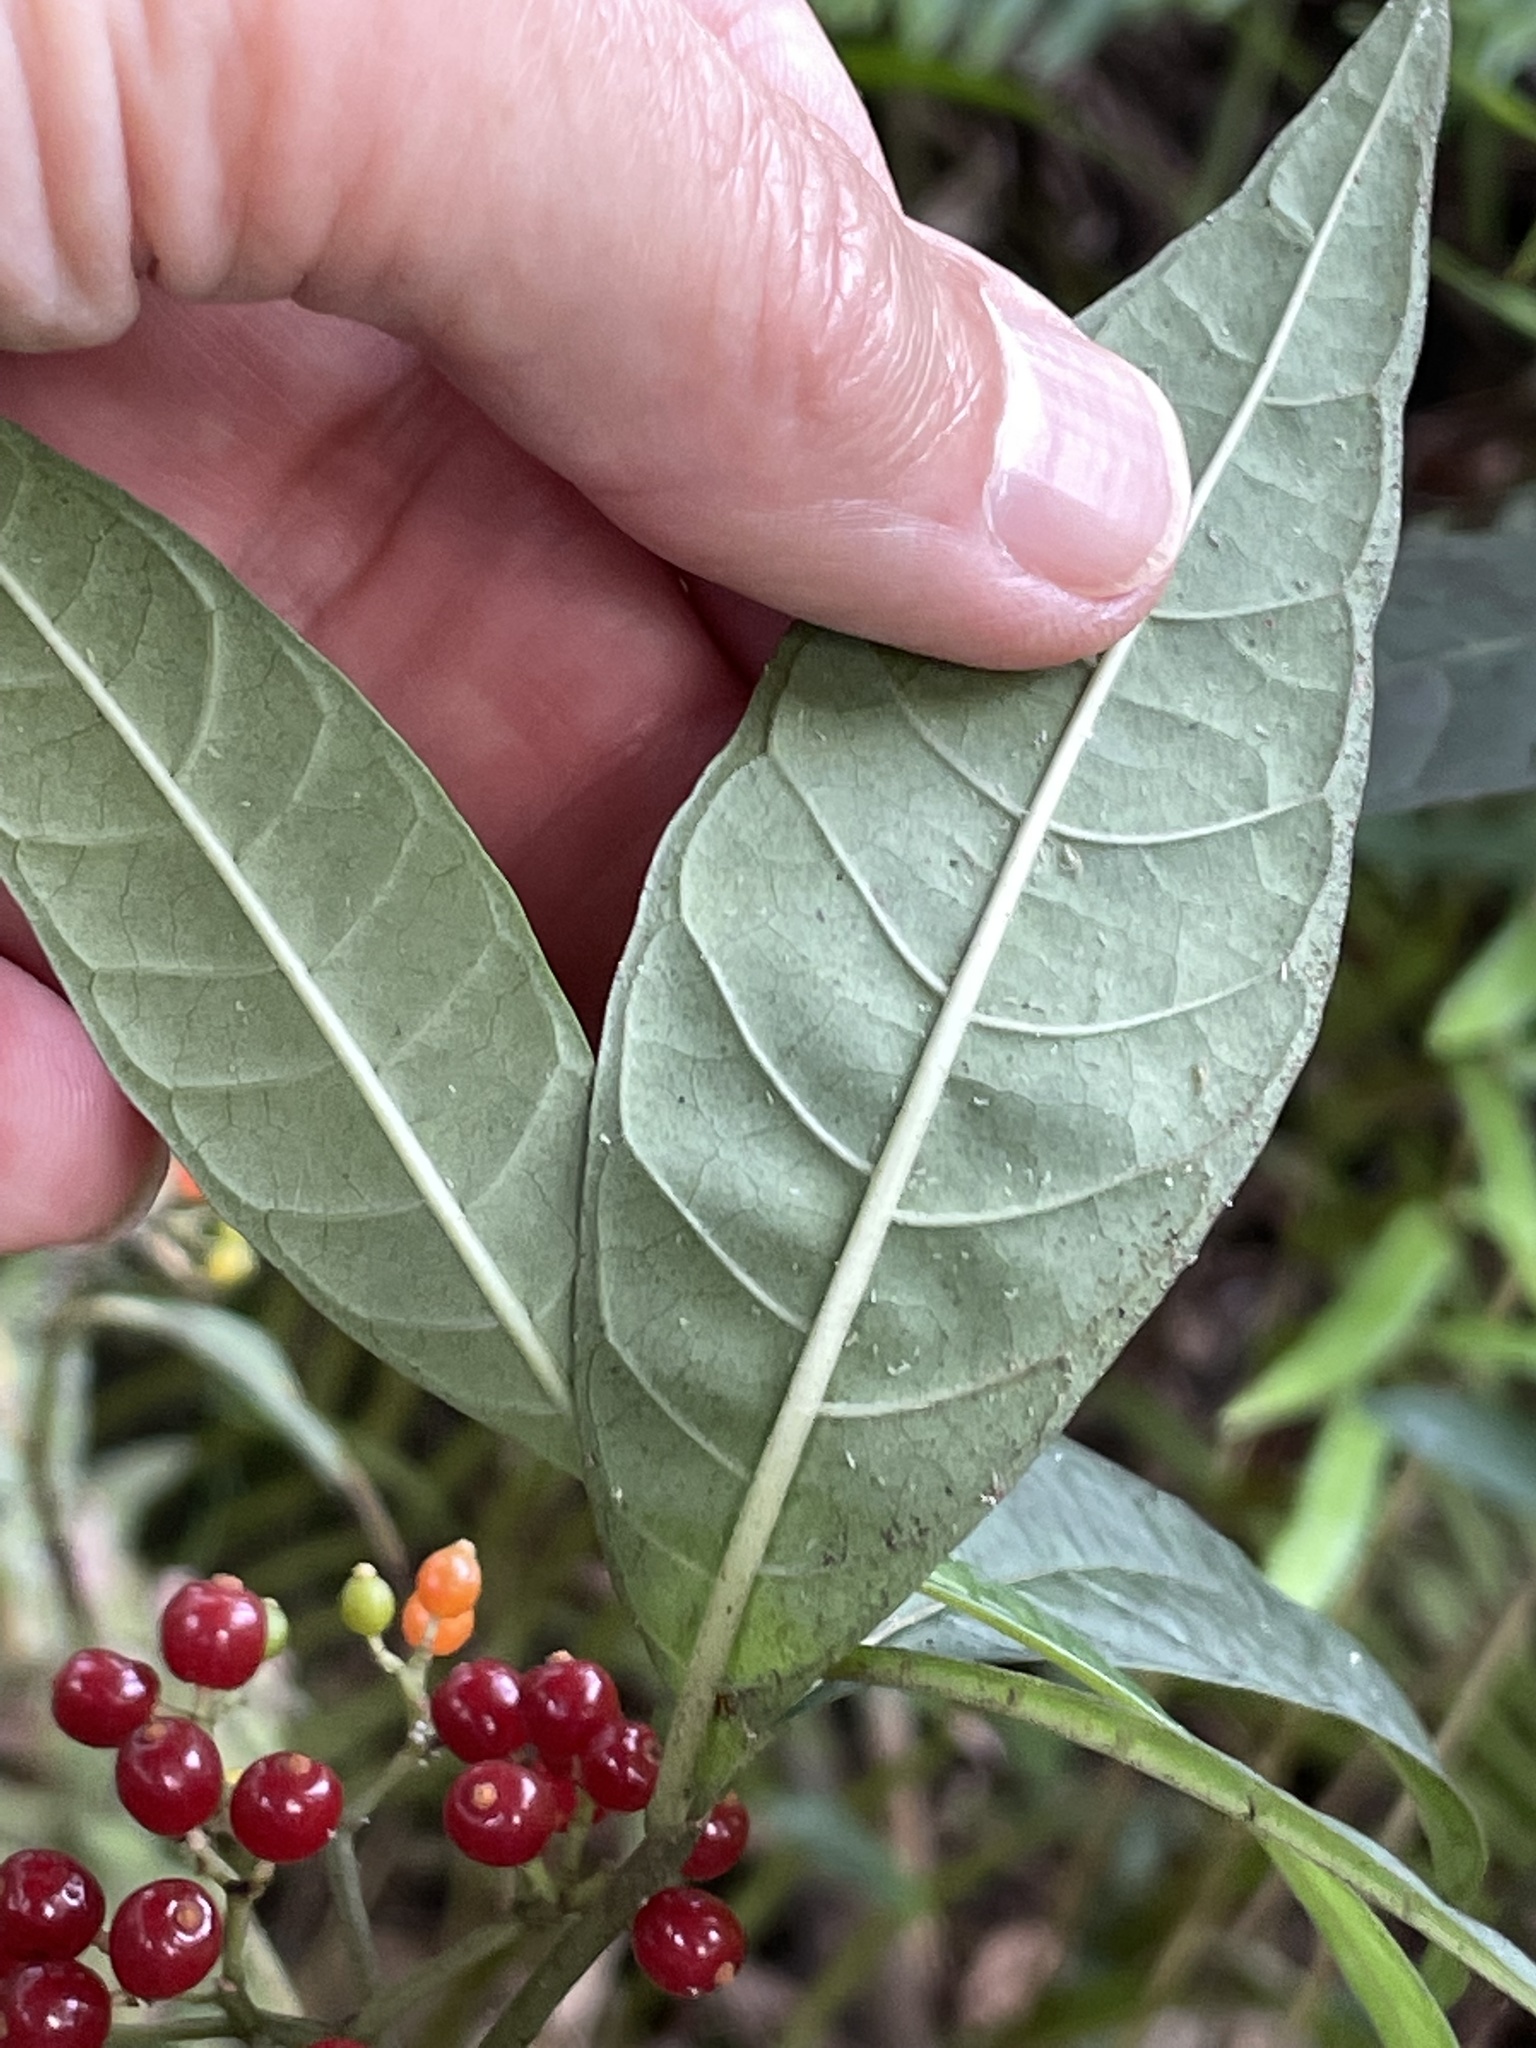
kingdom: Plantae
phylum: Tracheophyta
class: Magnoliopsida
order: Gentianales
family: Rubiaceae
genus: Psychotria
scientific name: Psychotria tenuifolia
